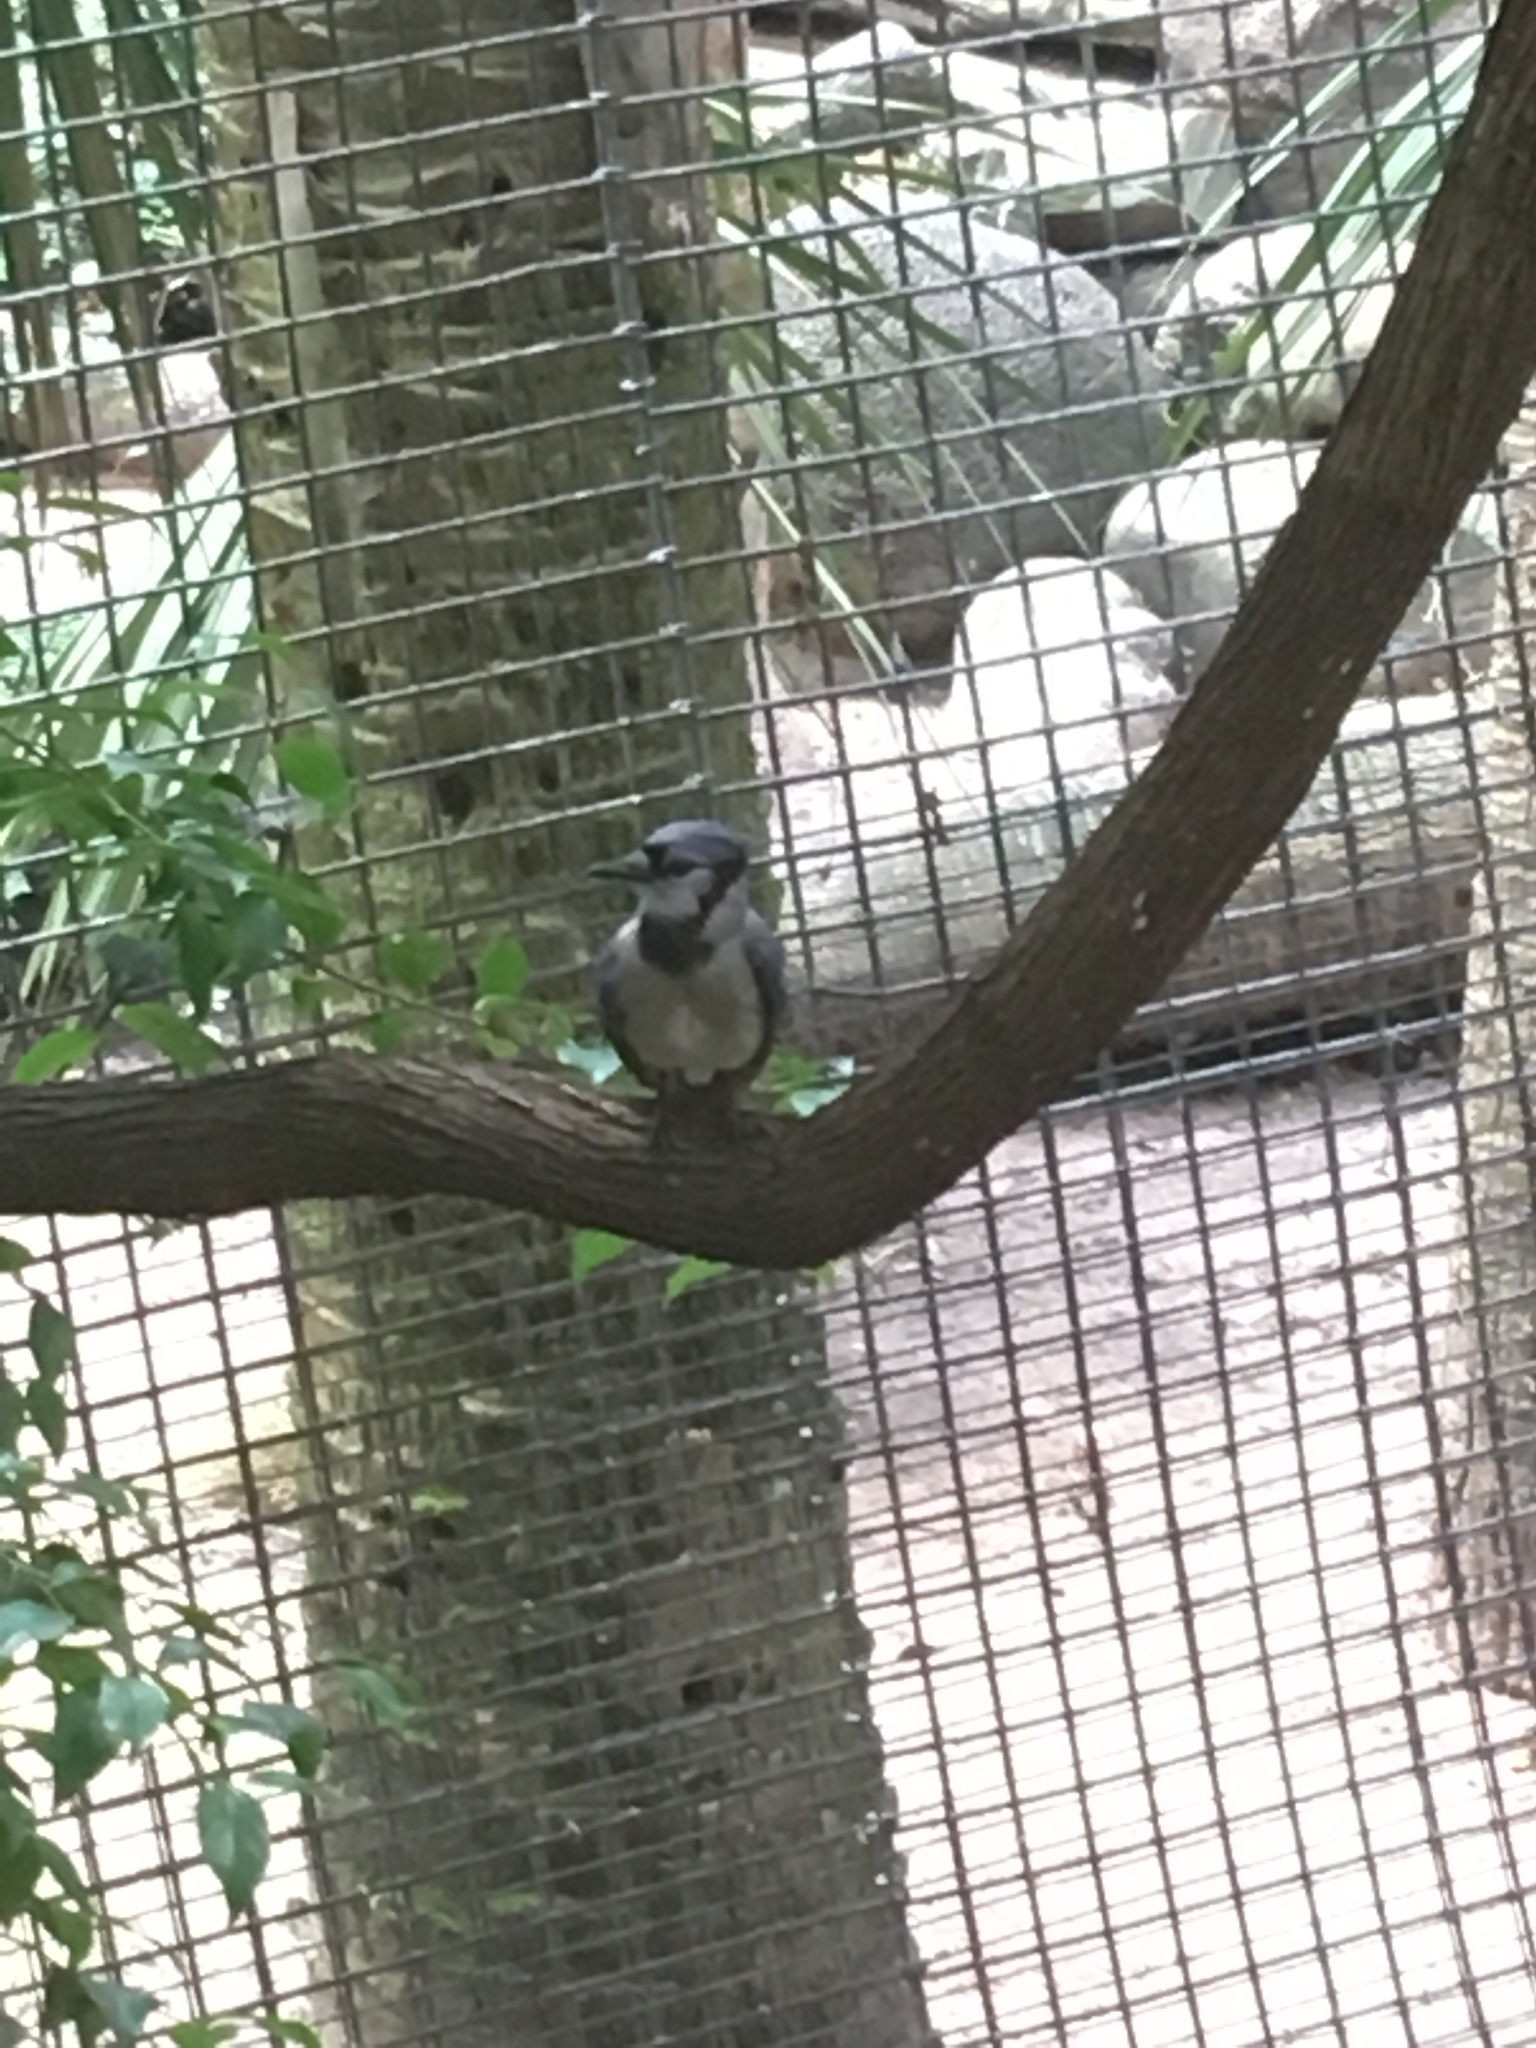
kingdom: Animalia
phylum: Chordata
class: Aves
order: Passeriformes
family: Corvidae
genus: Cyanocitta
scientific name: Cyanocitta cristata
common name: Blue jay
